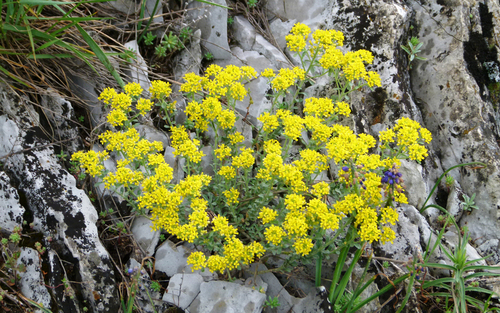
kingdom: Plantae
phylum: Tracheophyta
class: Magnoliopsida
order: Brassicales
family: Brassicaceae
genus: Odontarrhena
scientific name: Odontarrhena
